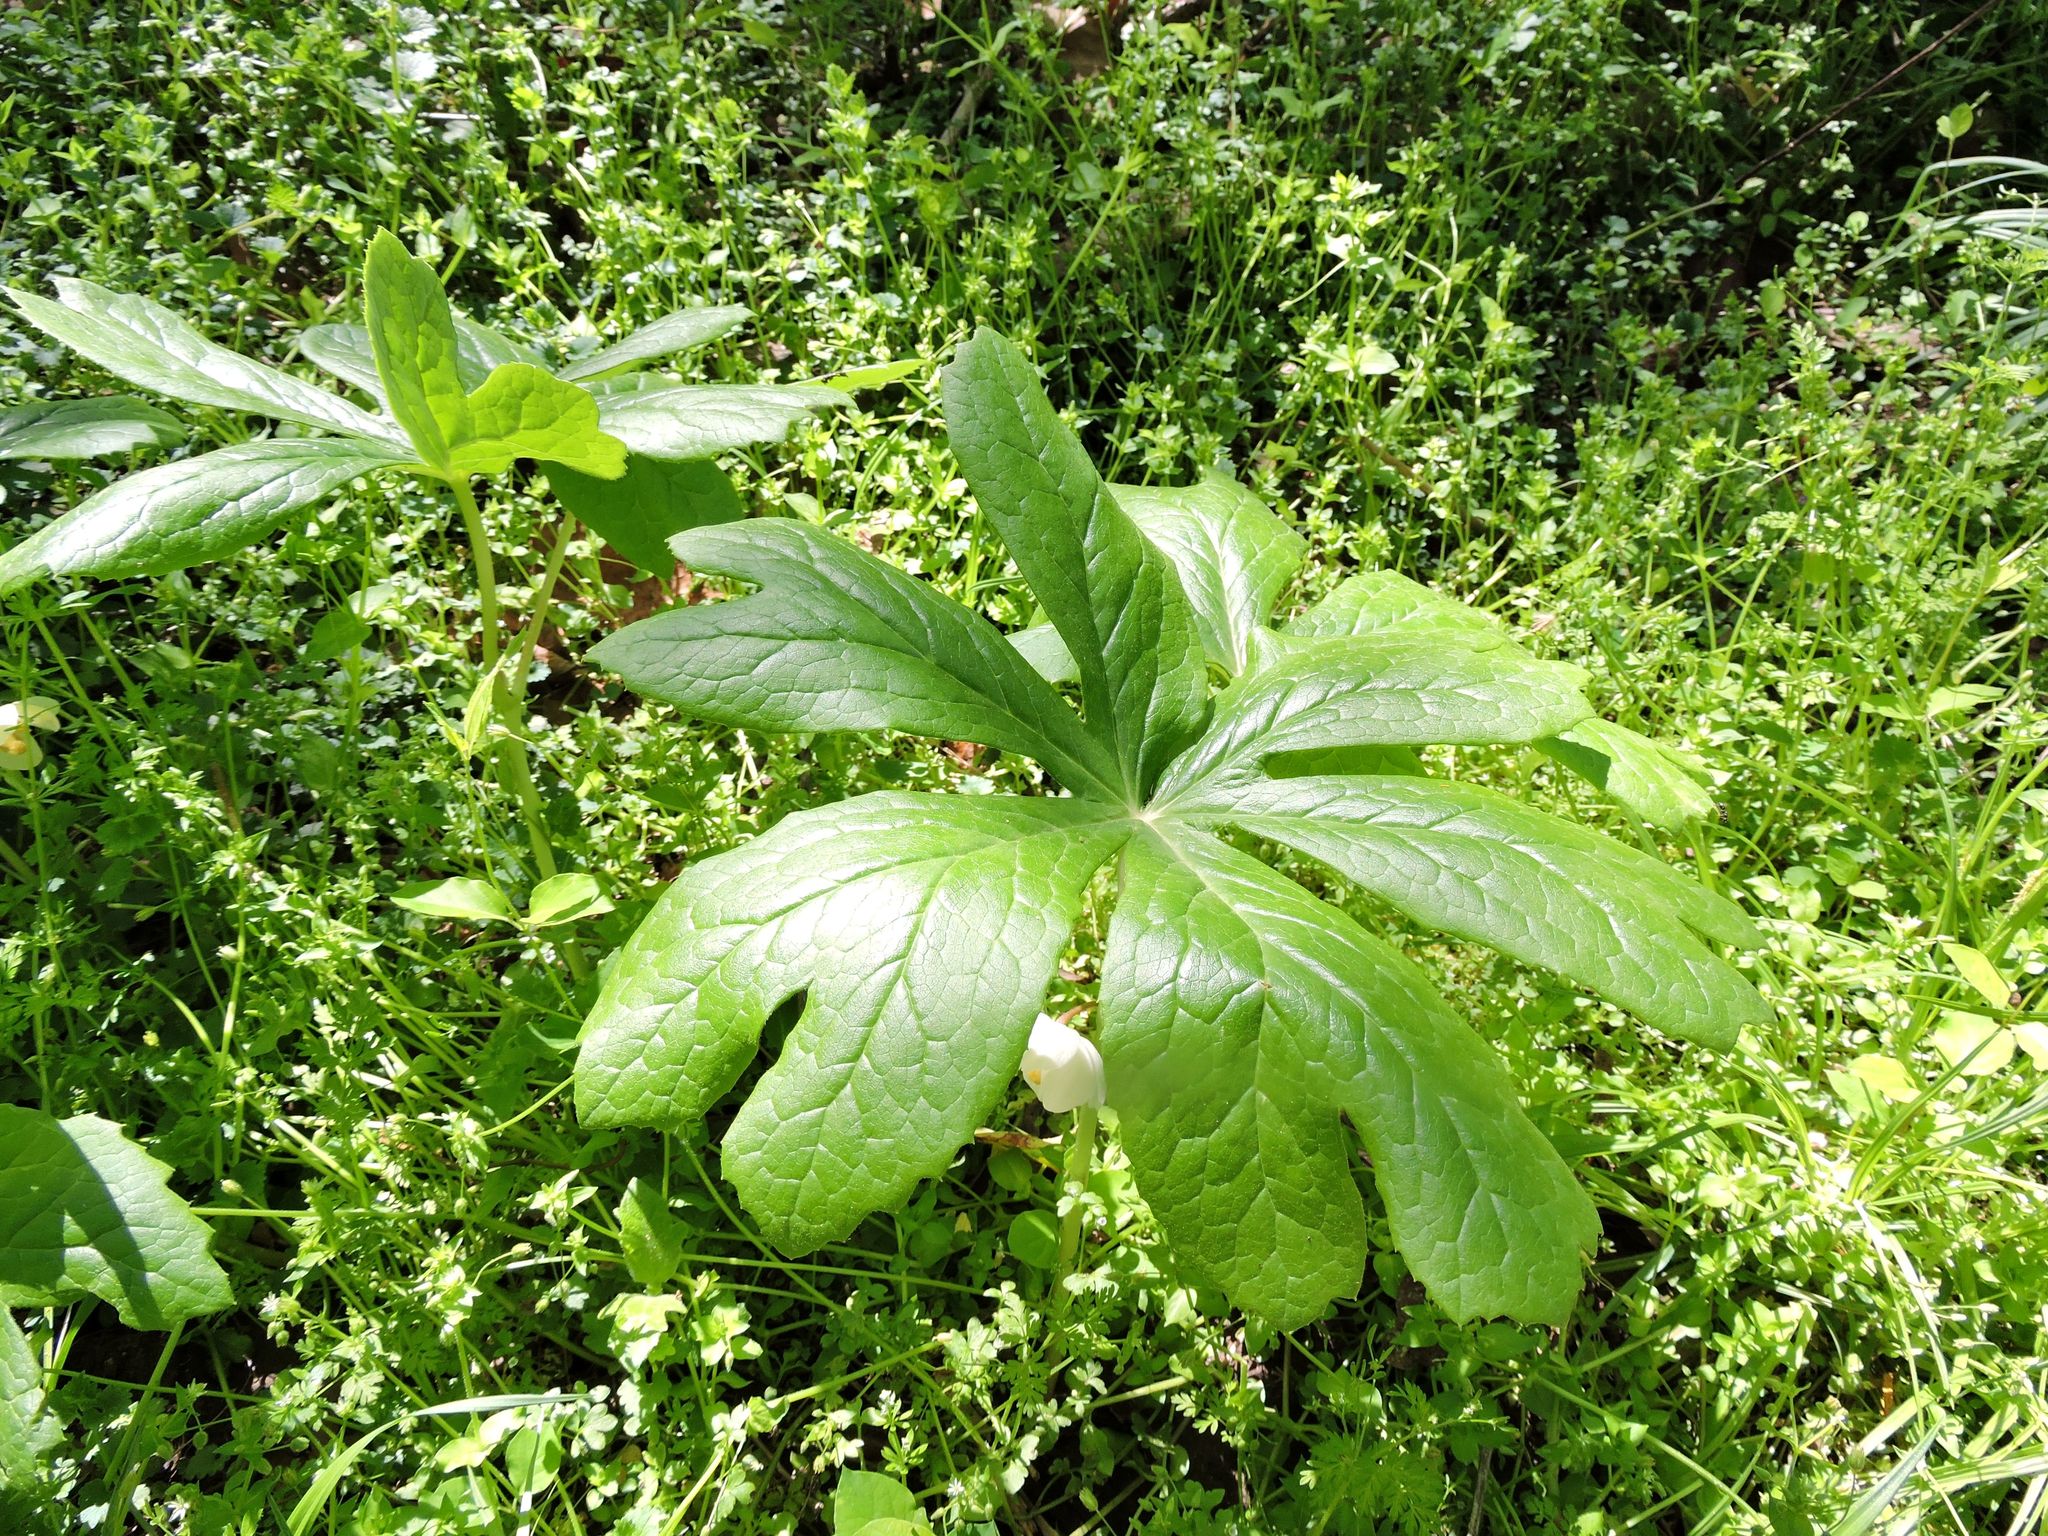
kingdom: Plantae
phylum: Tracheophyta
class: Magnoliopsida
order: Ranunculales
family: Berberidaceae
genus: Podophyllum
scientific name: Podophyllum peltatum
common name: Wild mandrake
